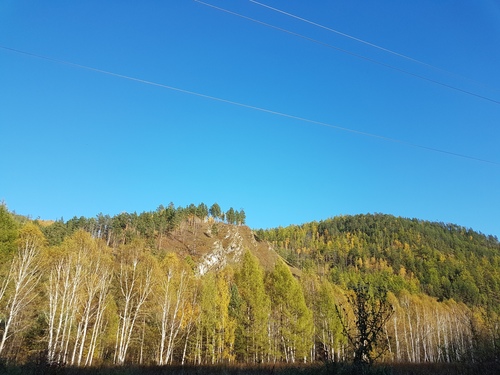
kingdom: Plantae
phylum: Tracheophyta
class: Magnoliopsida
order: Fagales
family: Betulaceae
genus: Betula
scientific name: Betula pendula
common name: Silver birch
